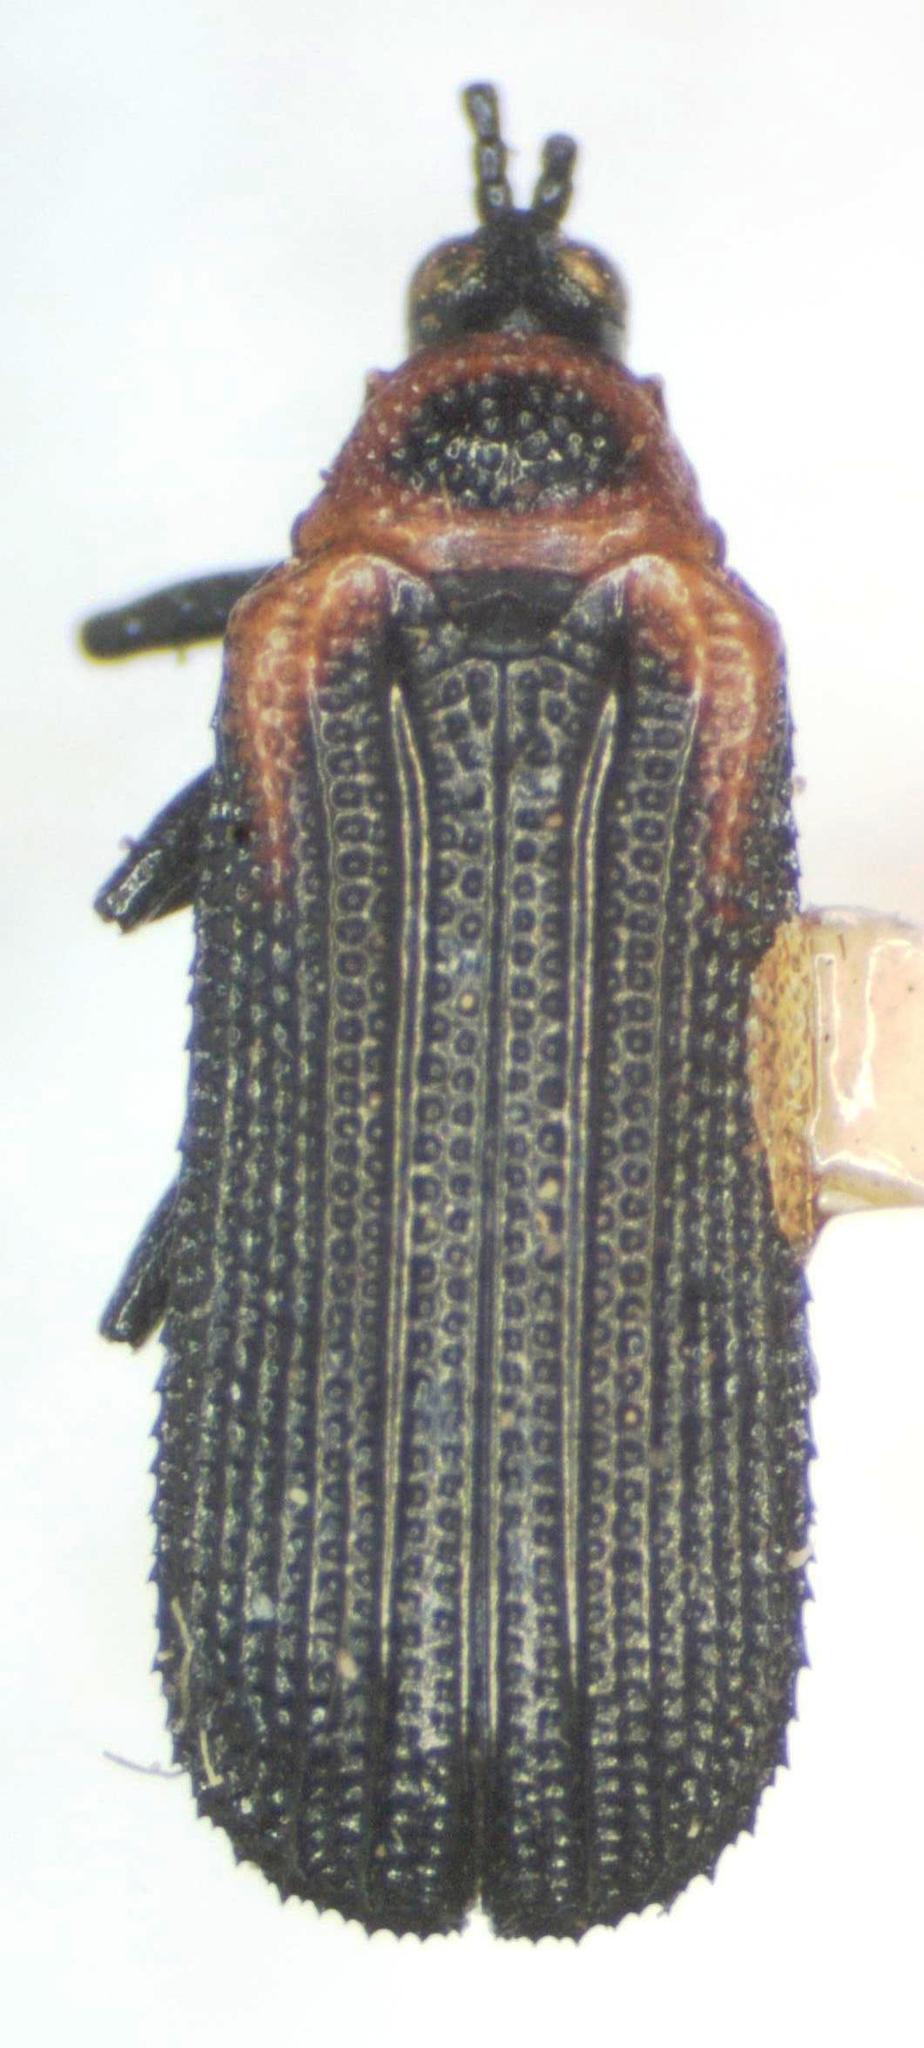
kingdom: Animalia
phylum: Arthropoda
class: Insecta
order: Coleoptera
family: Chrysomelidae
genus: Odontota
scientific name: Odontota arizonica
